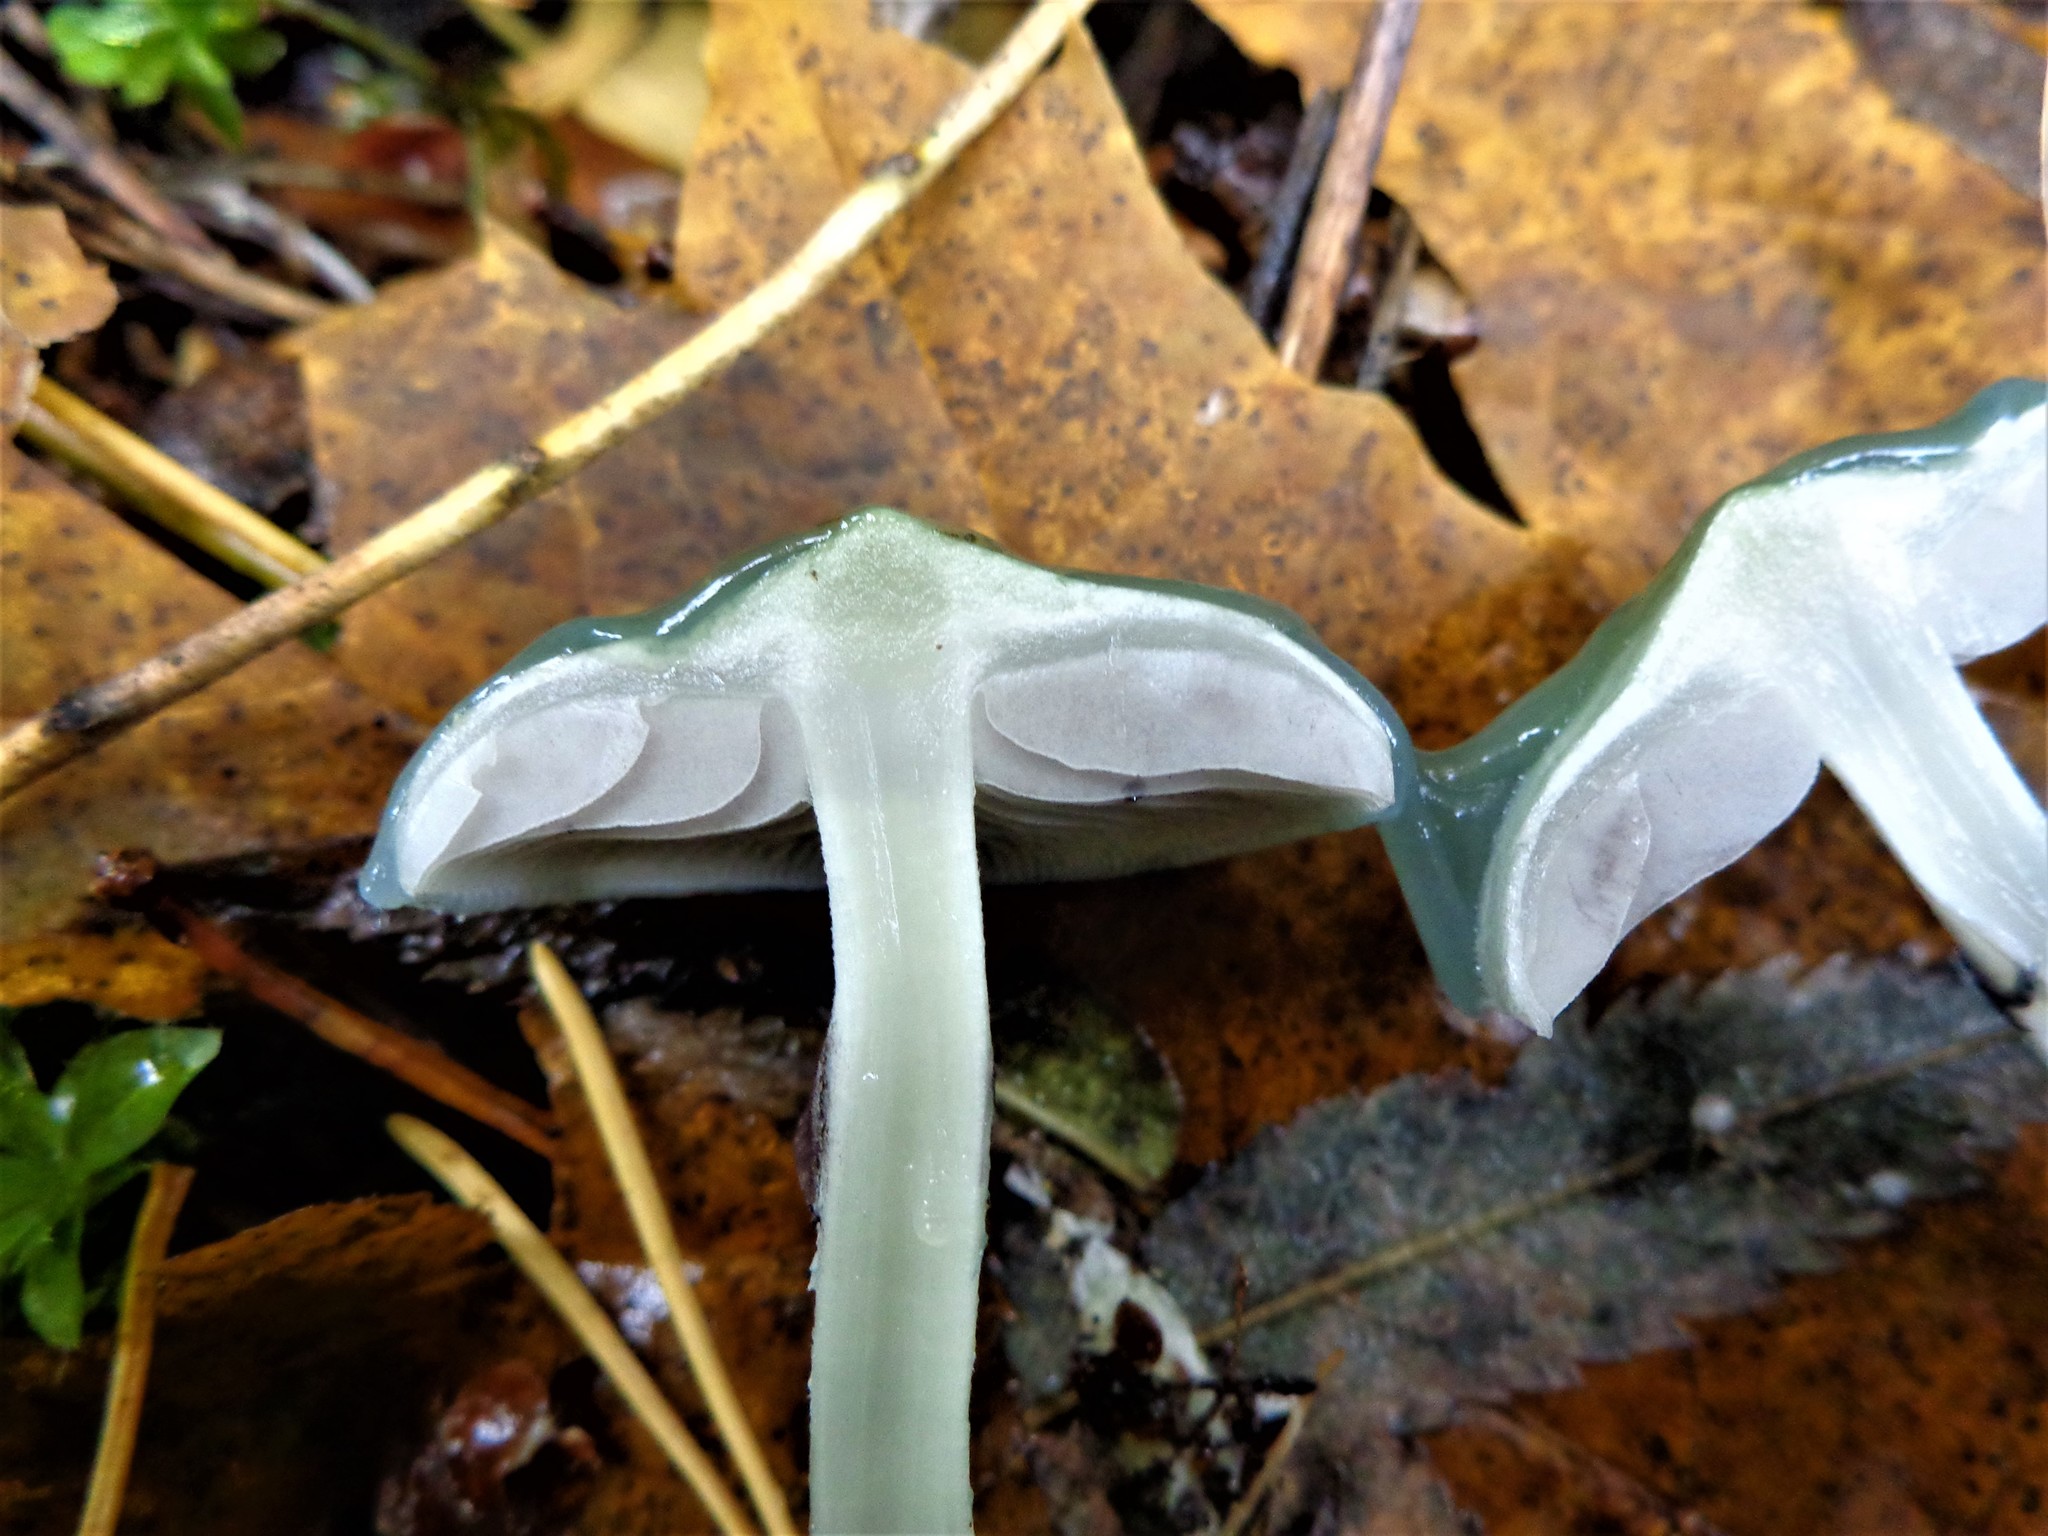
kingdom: Fungi
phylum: Basidiomycota
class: Agaricomycetes
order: Agaricales
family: Strophariaceae
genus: Stropharia
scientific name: Stropharia aeruginosa
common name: Verdigris roundhead
